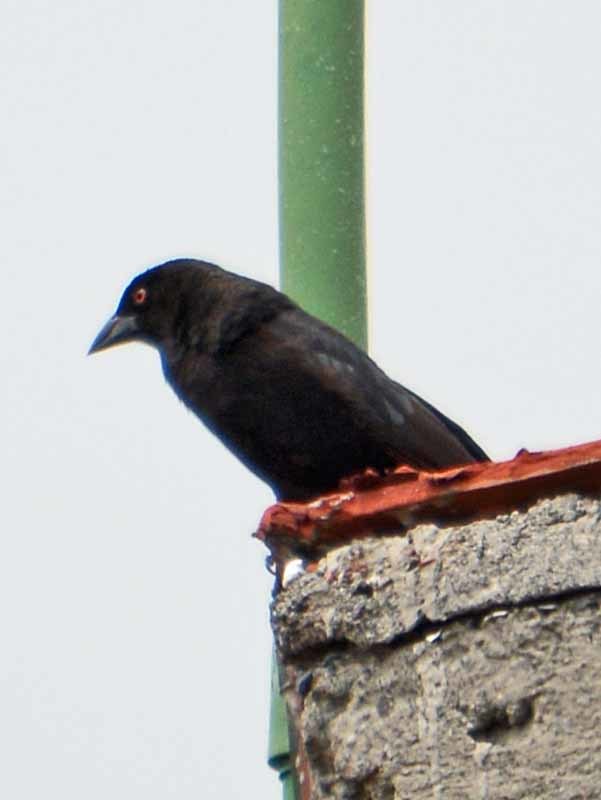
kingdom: Animalia
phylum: Chordata
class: Aves
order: Passeriformes
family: Icteridae
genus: Molothrus
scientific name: Molothrus aeneus
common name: Bronzed cowbird
